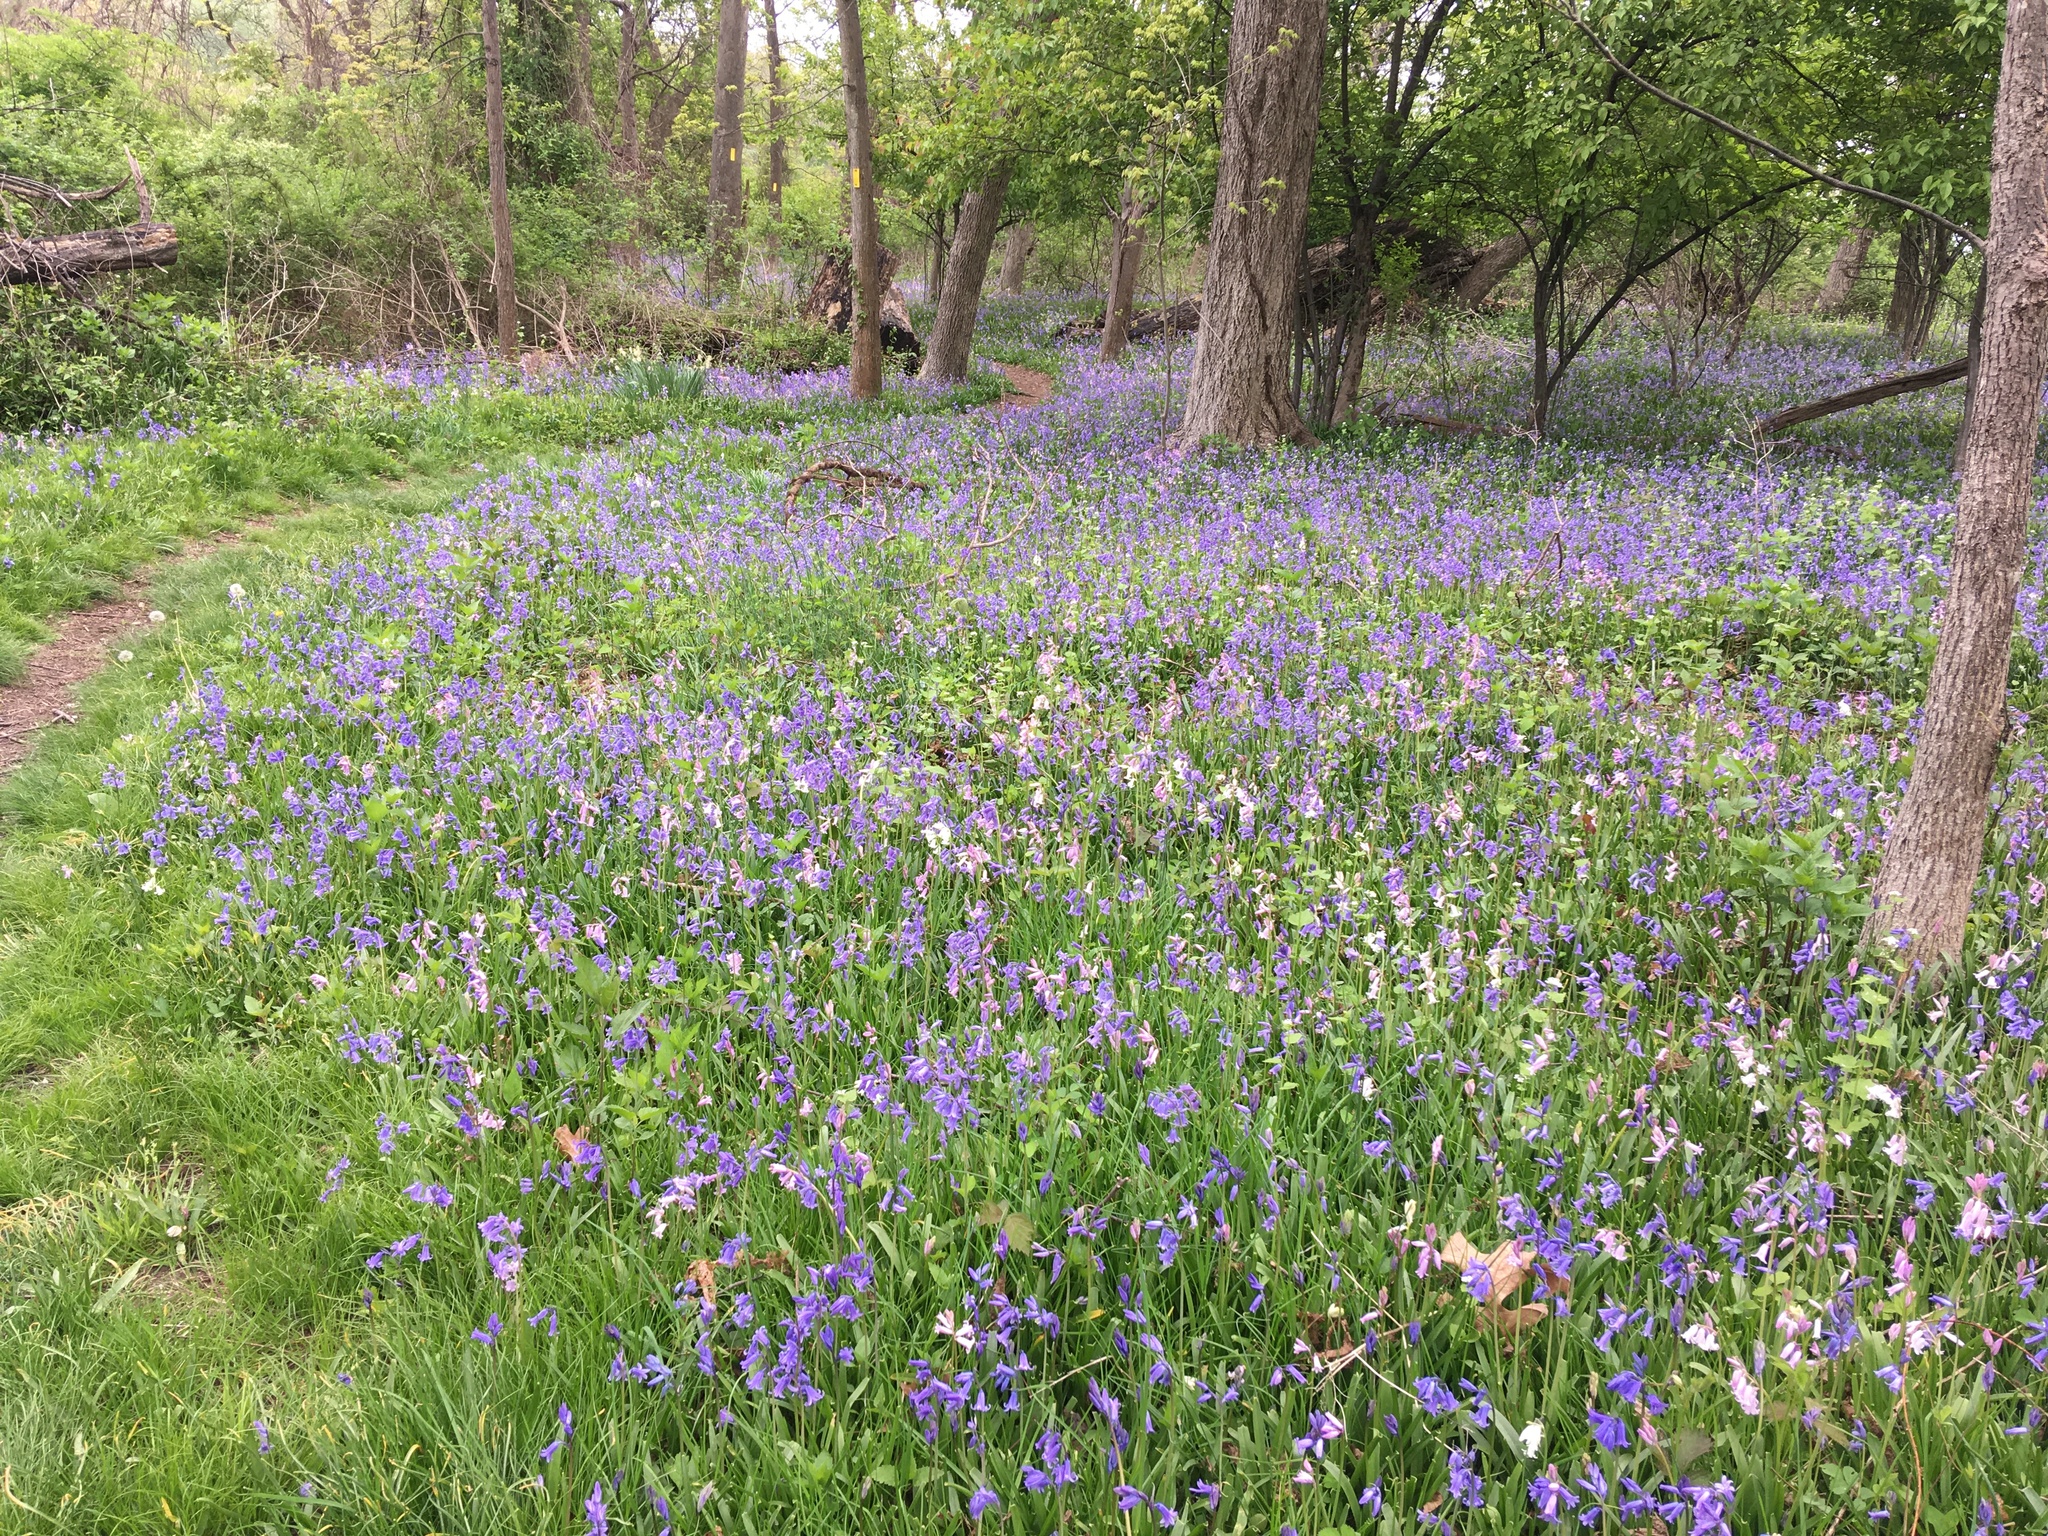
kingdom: Plantae
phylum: Tracheophyta
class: Liliopsida
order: Asparagales
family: Asparagaceae
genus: Hyacinthoides
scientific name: Hyacinthoides massartiana
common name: Hyacinthoides
